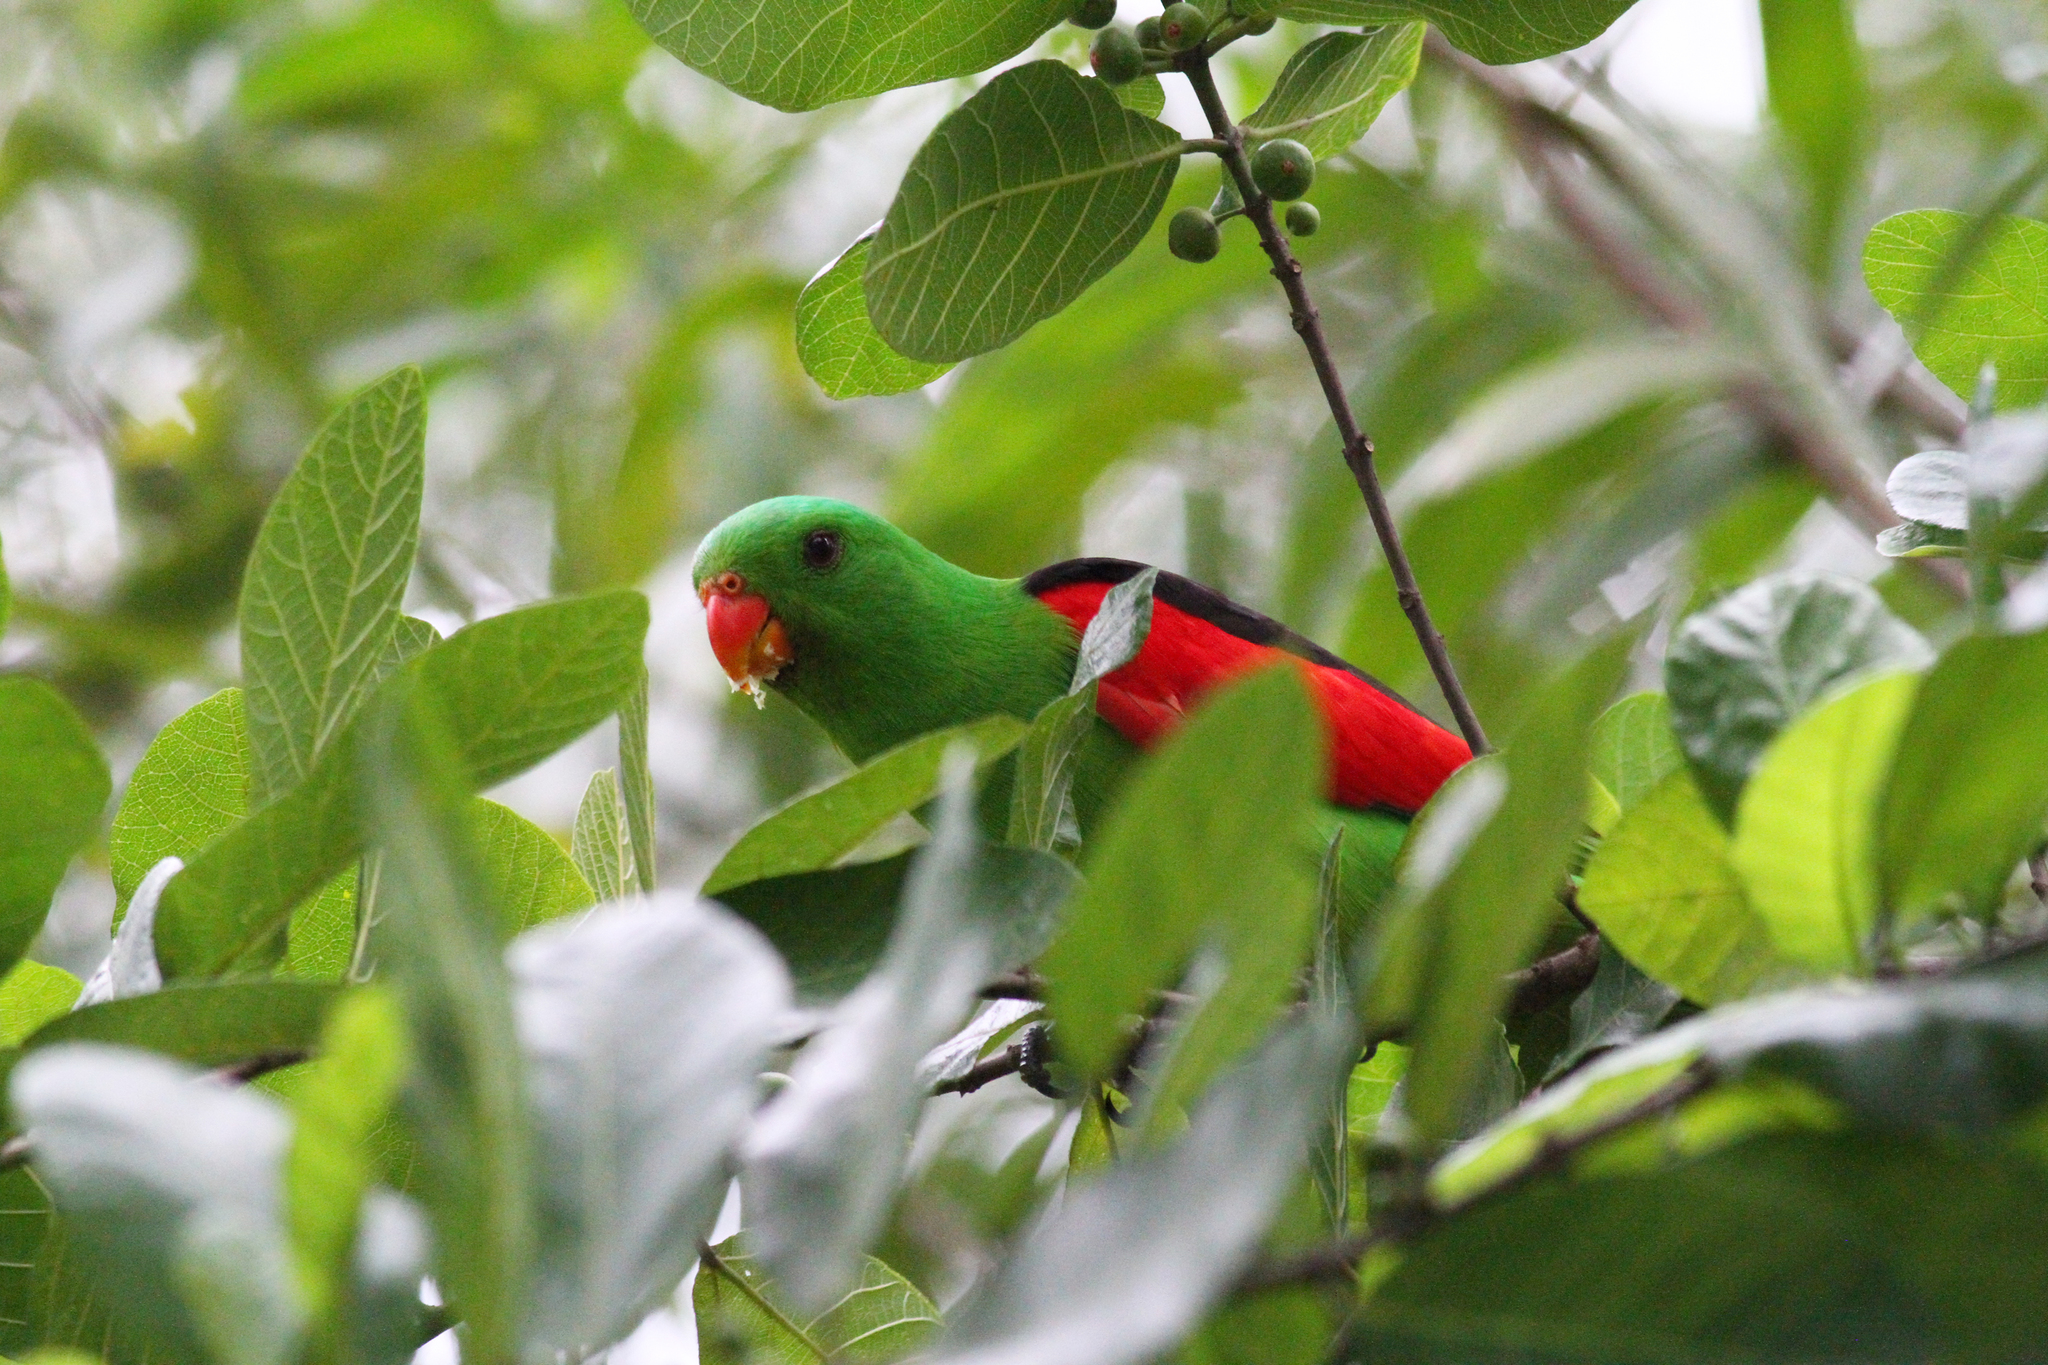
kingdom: Animalia
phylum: Chordata
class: Aves
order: Psittaciformes
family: Psittacidae
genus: Aprosmictus
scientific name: Aprosmictus erythropterus
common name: Red-winged parrot
